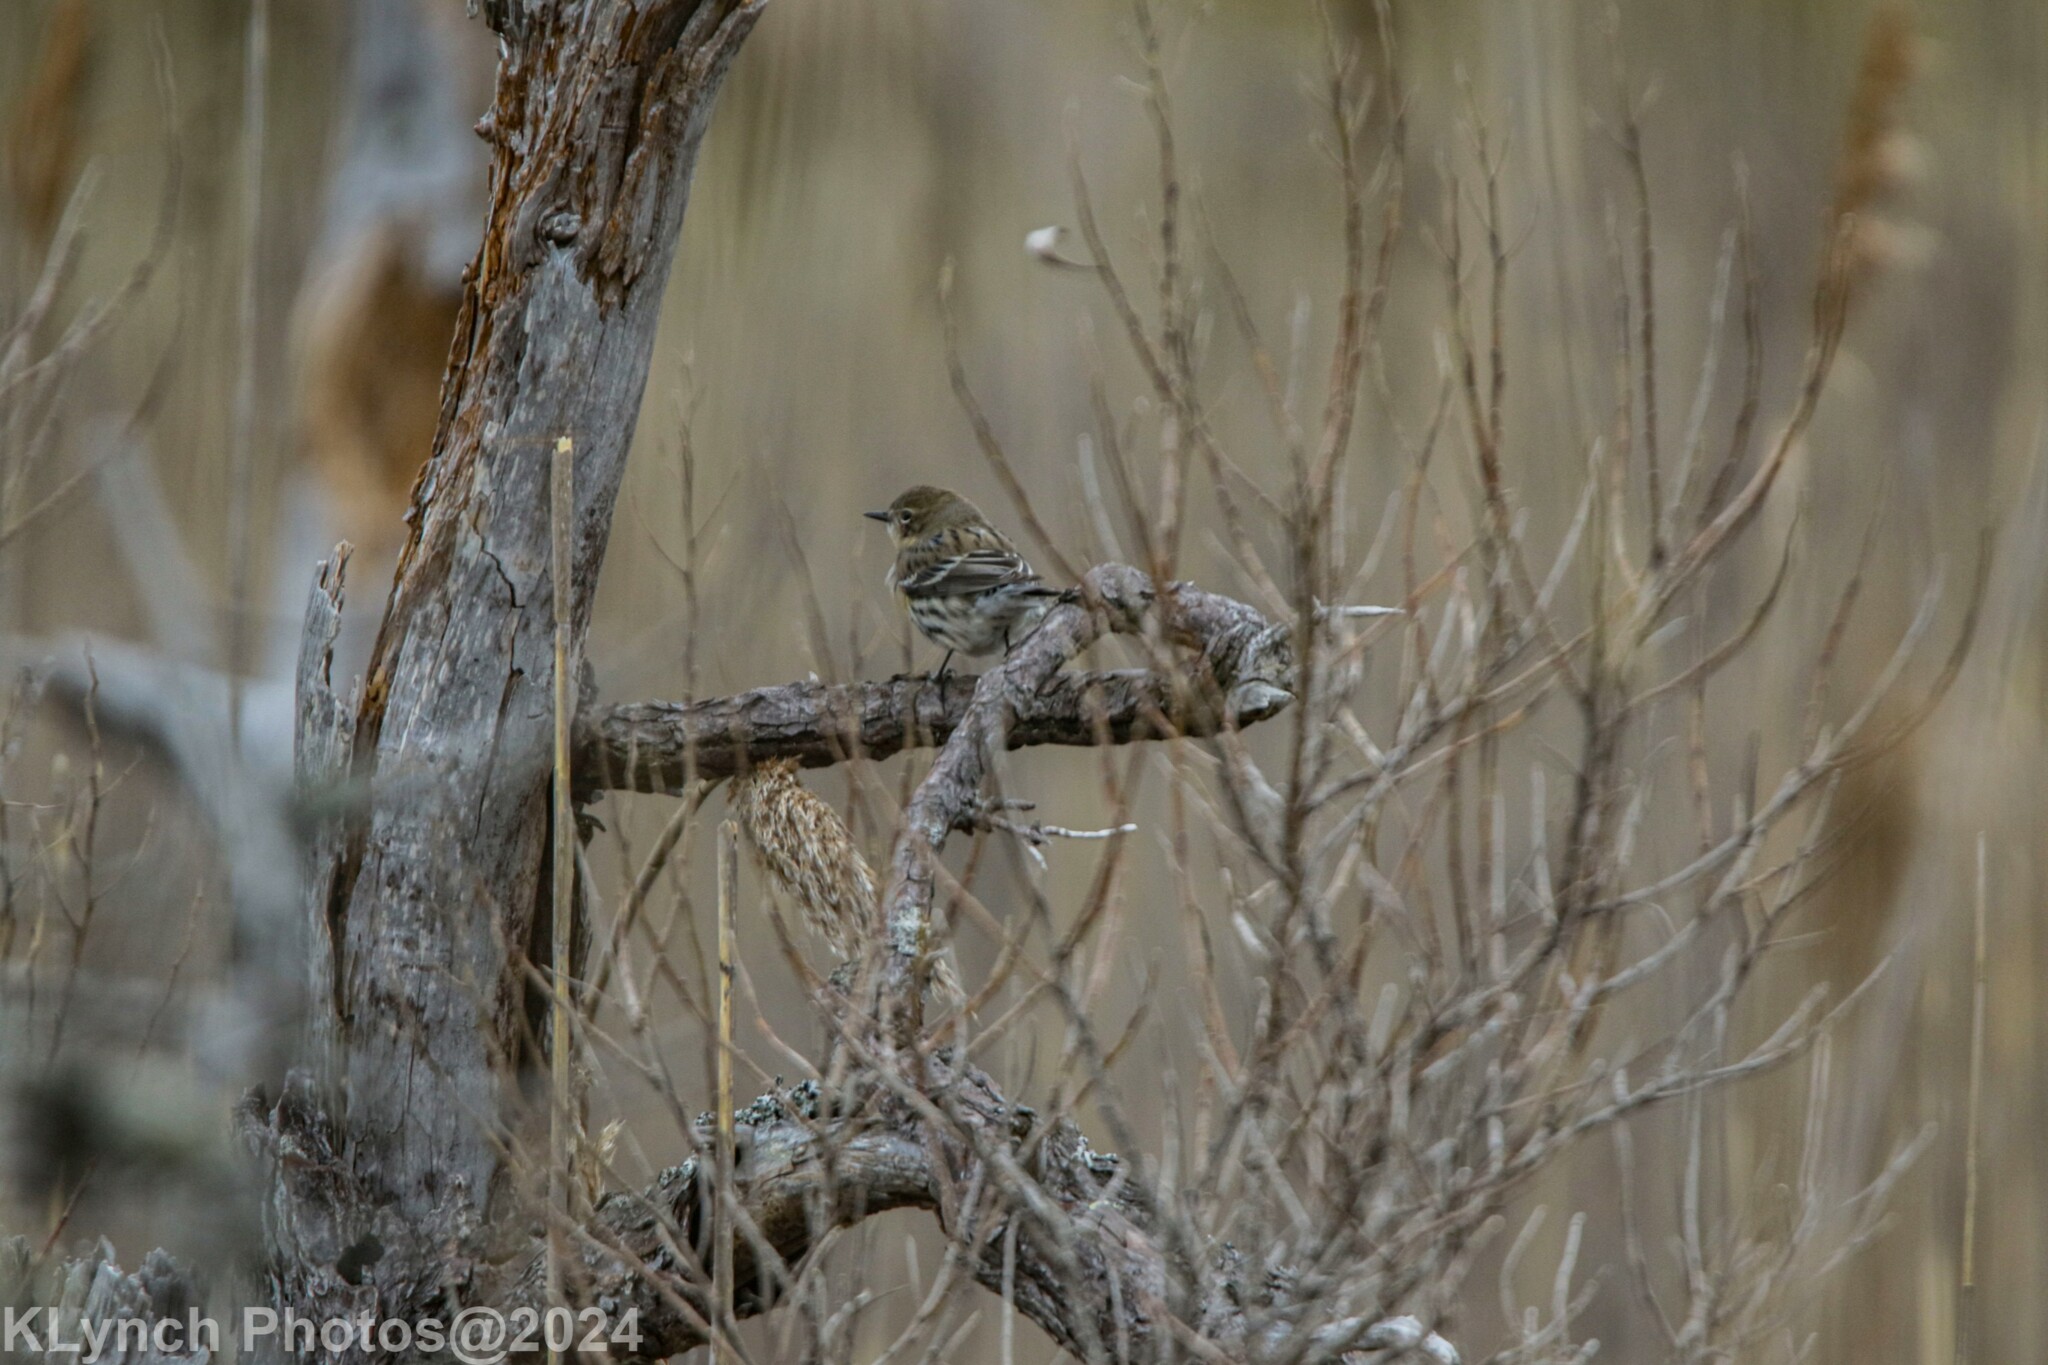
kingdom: Animalia
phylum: Chordata
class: Aves
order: Passeriformes
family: Parulidae
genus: Setophaga
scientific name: Setophaga coronata
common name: Myrtle warbler
